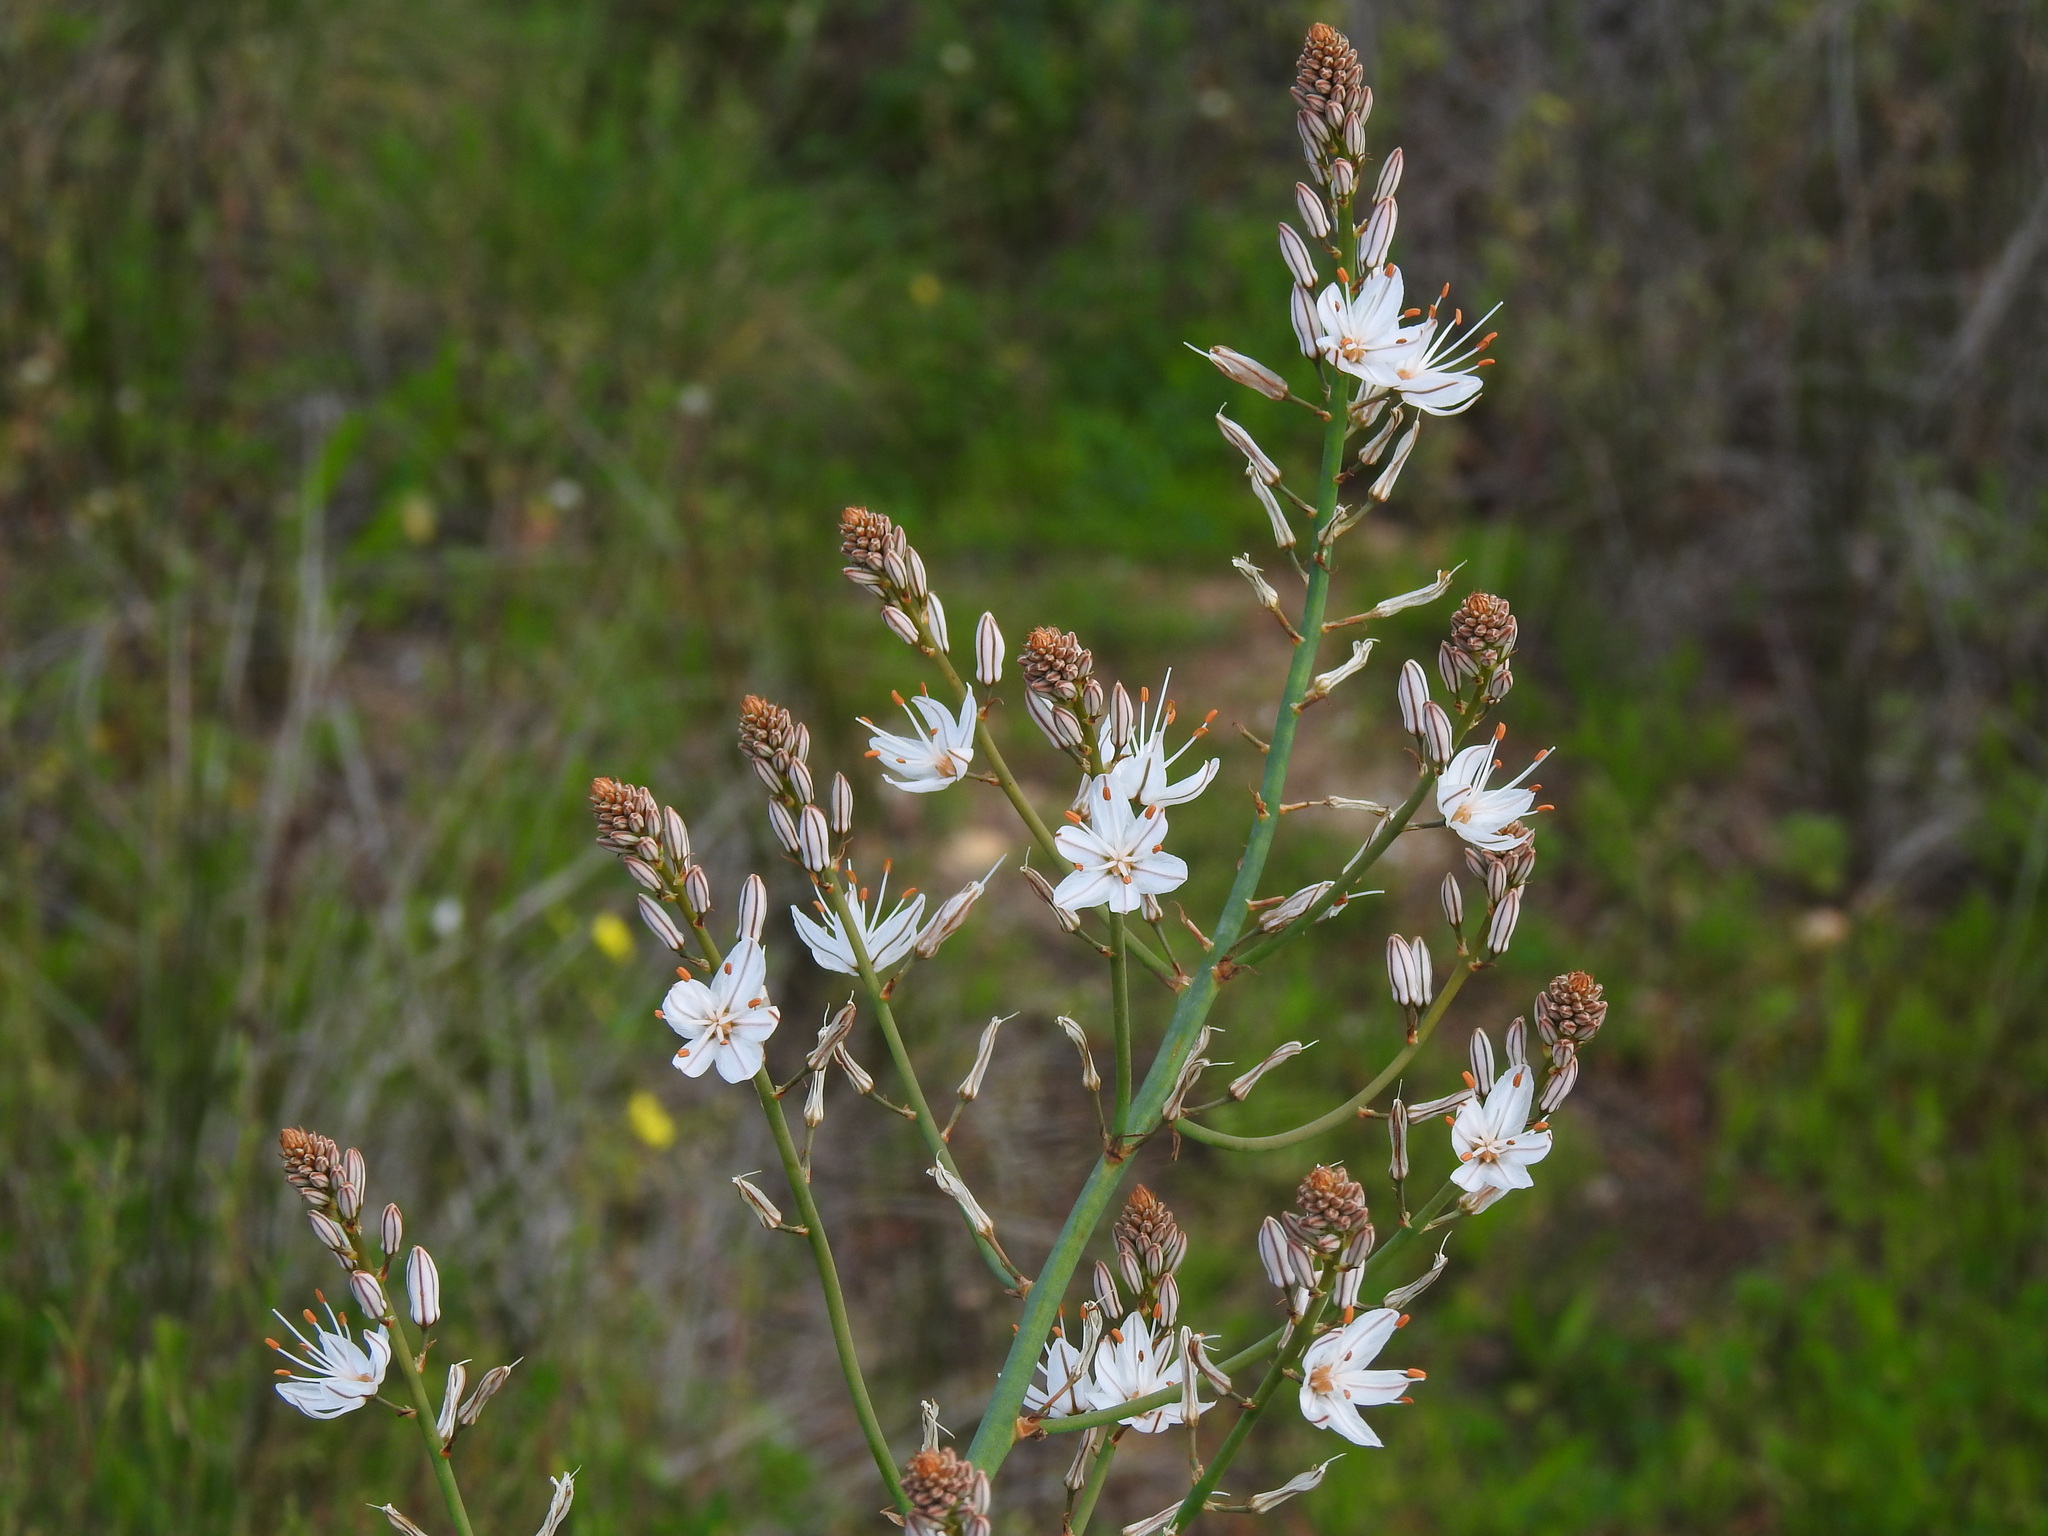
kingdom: Plantae
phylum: Tracheophyta
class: Liliopsida
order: Asparagales
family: Asphodelaceae
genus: Asphodelus
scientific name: Asphodelus serotinus
